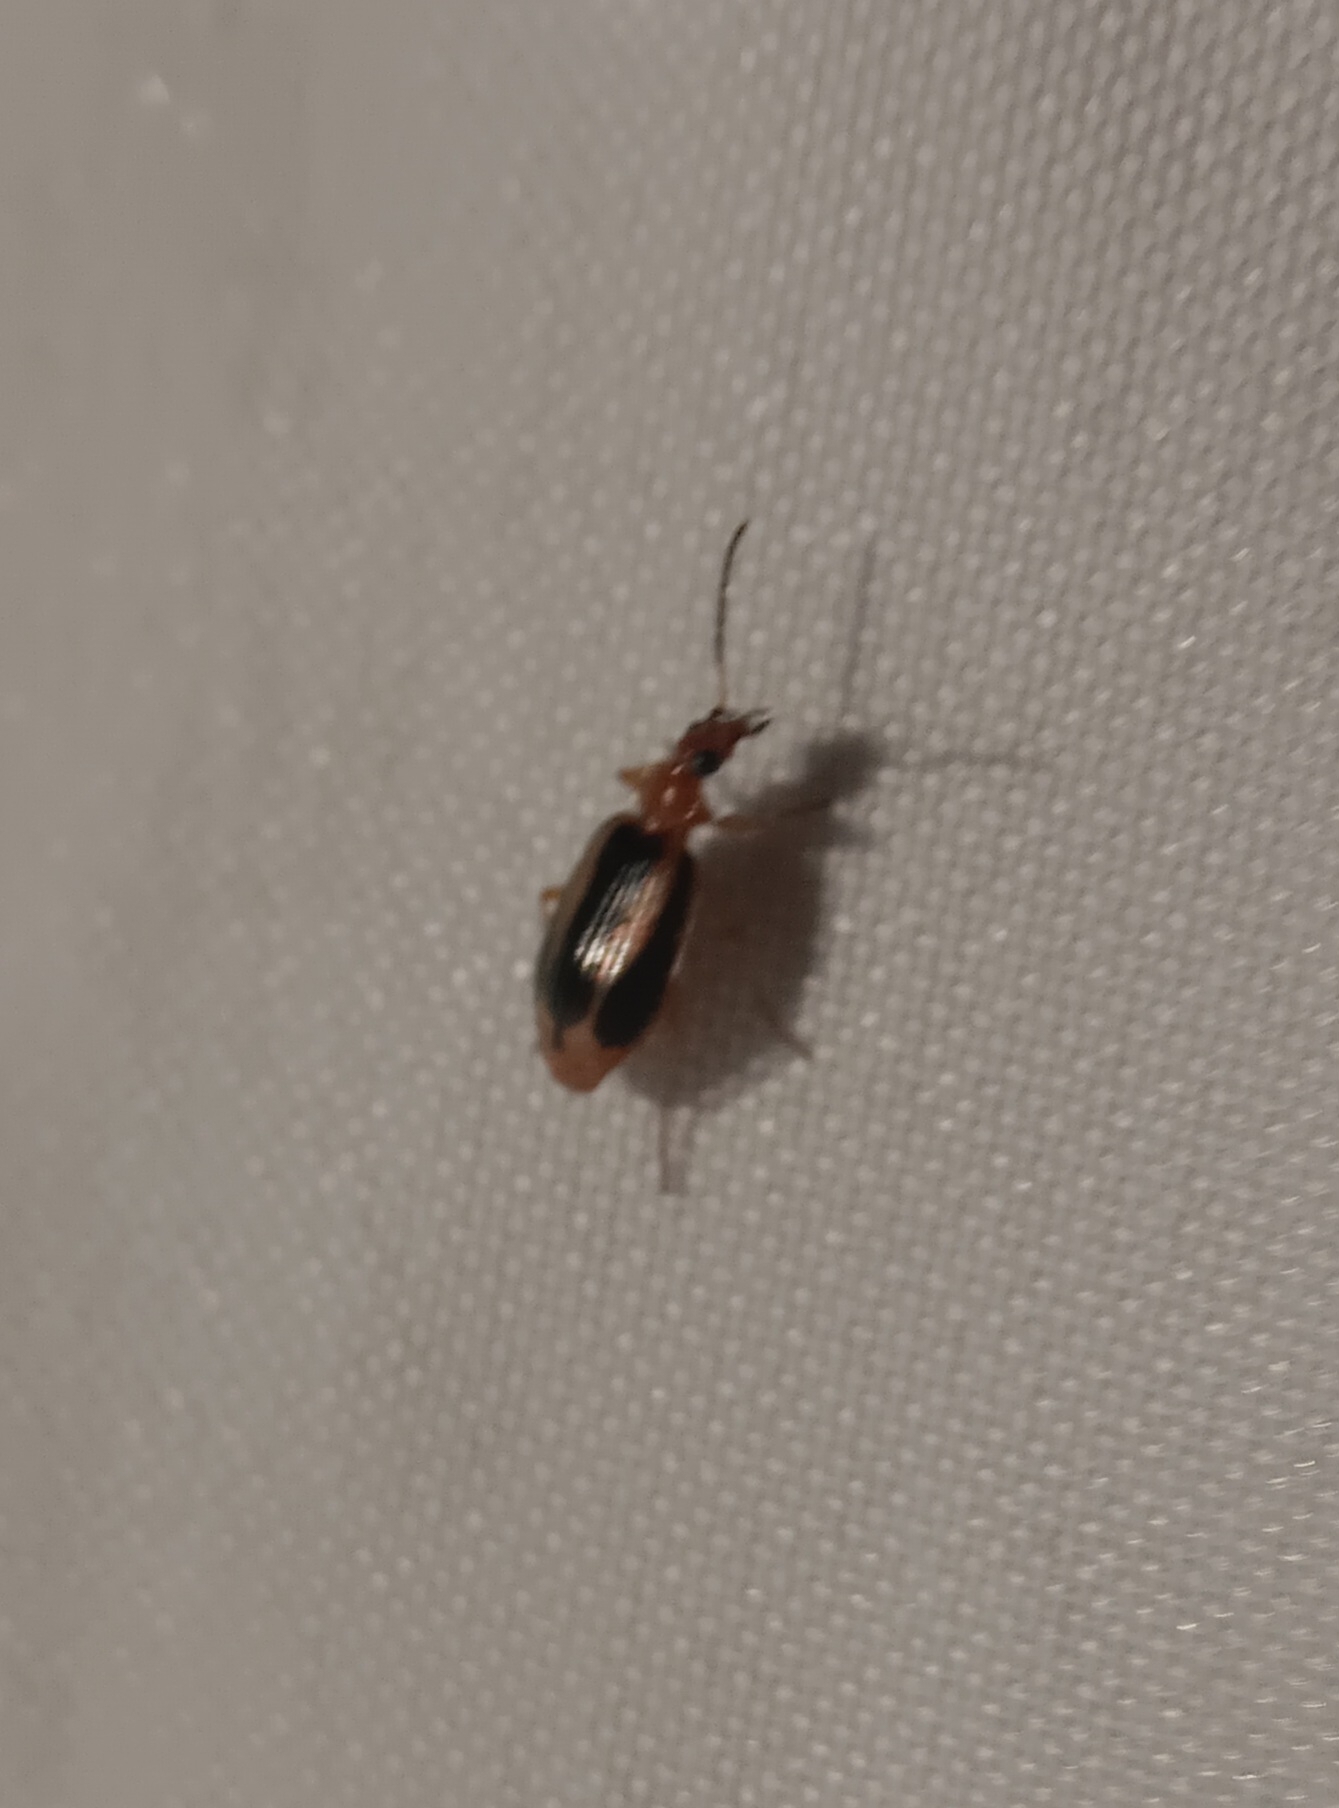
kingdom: Animalia
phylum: Arthropoda
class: Insecta
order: Coleoptera
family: Carabidae
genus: Lebia
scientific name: Lebia solea
